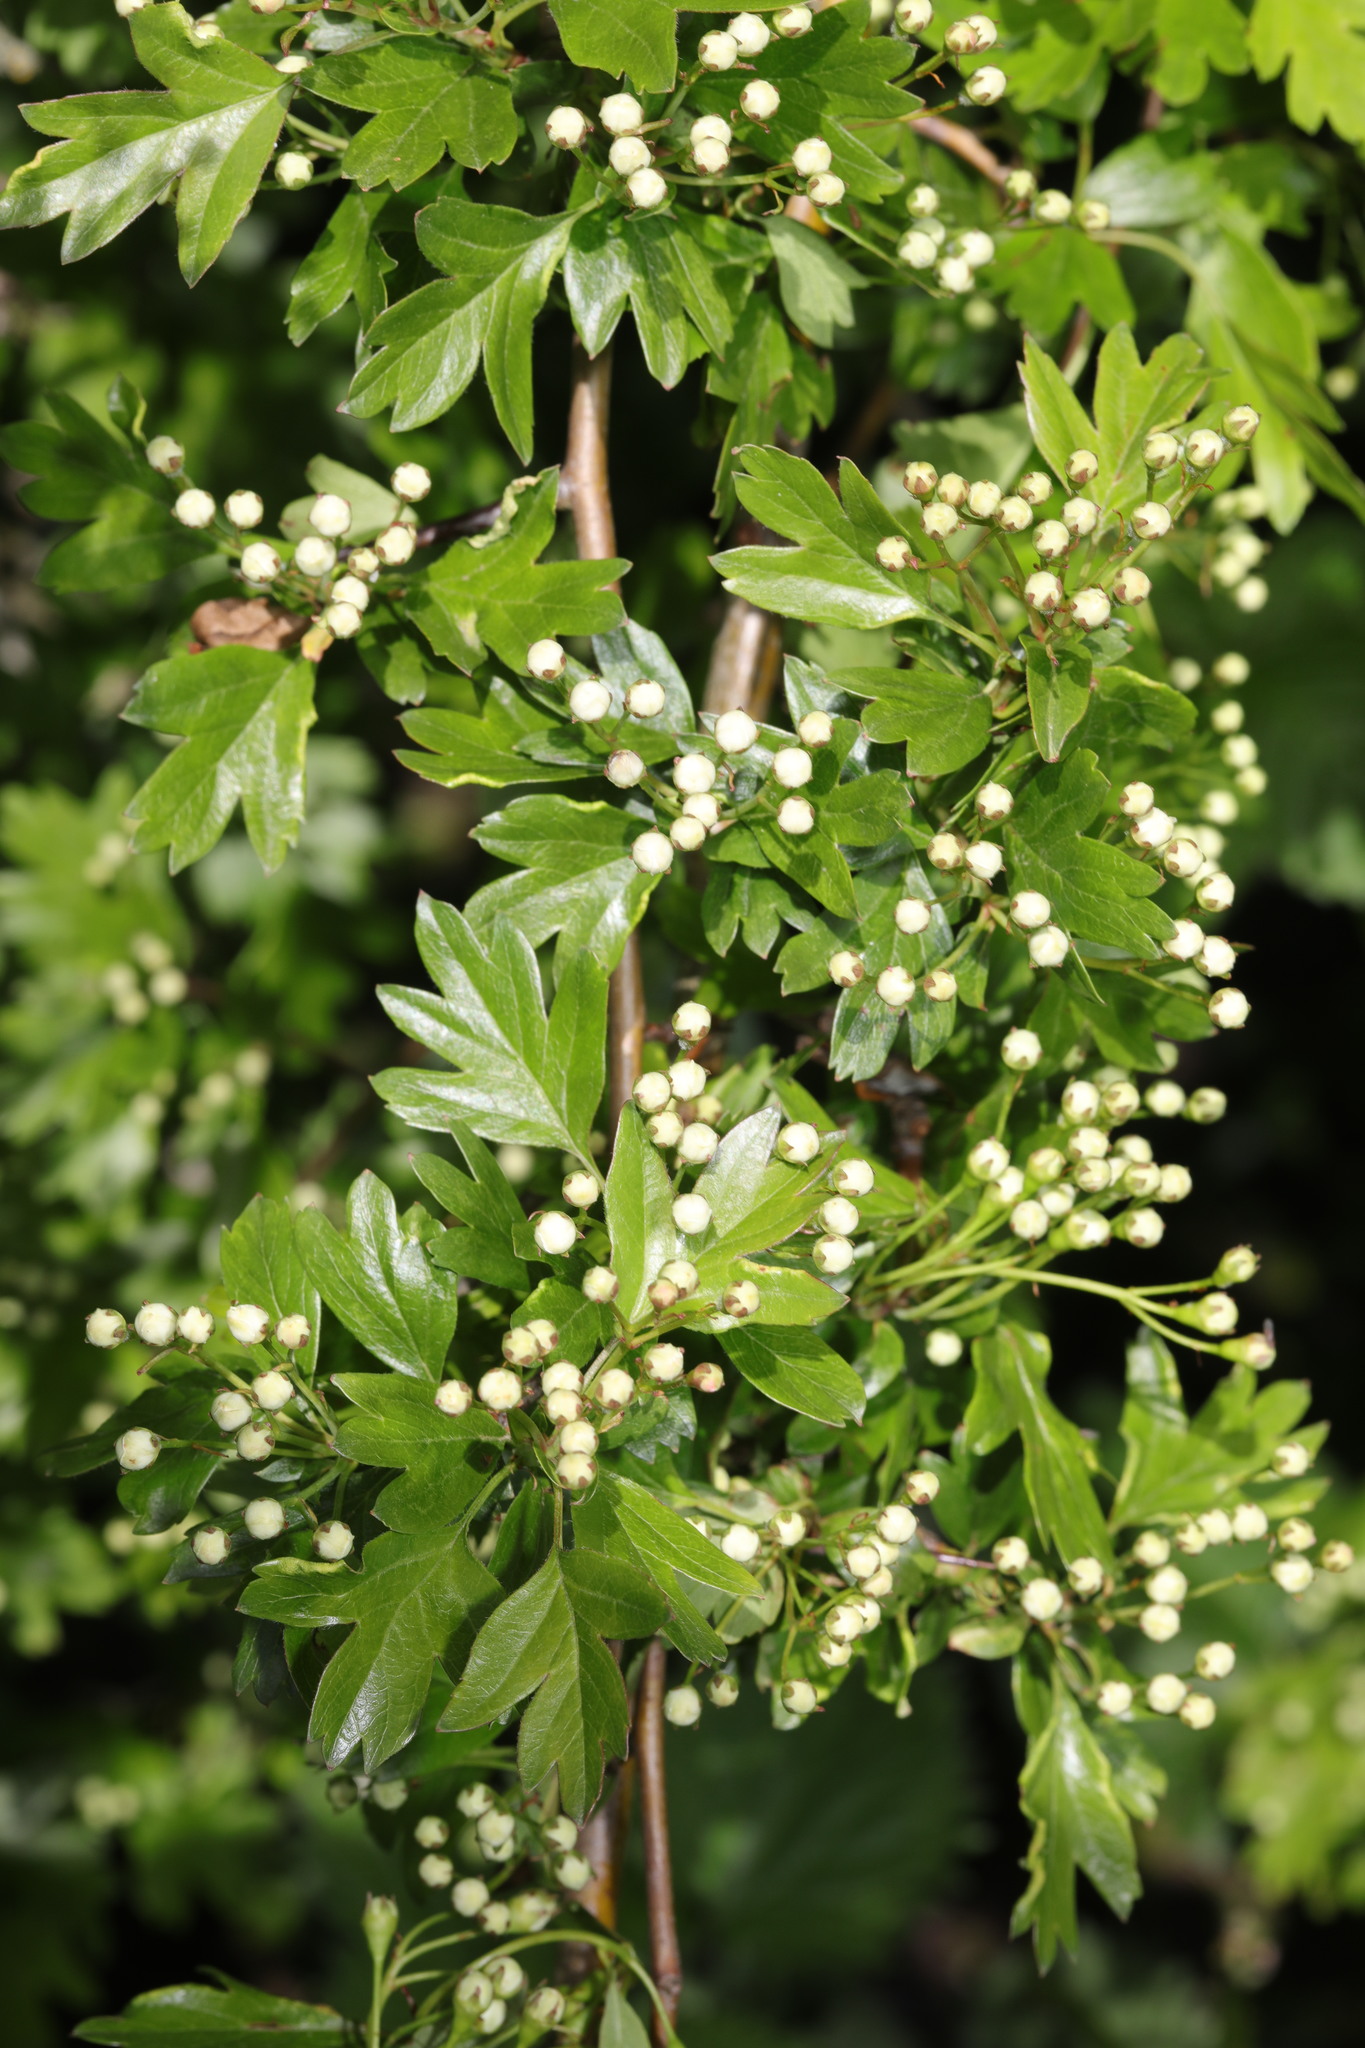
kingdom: Plantae
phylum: Tracheophyta
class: Magnoliopsida
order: Rosales
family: Rosaceae
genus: Crataegus
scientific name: Crataegus monogyna
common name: Hawthorn
